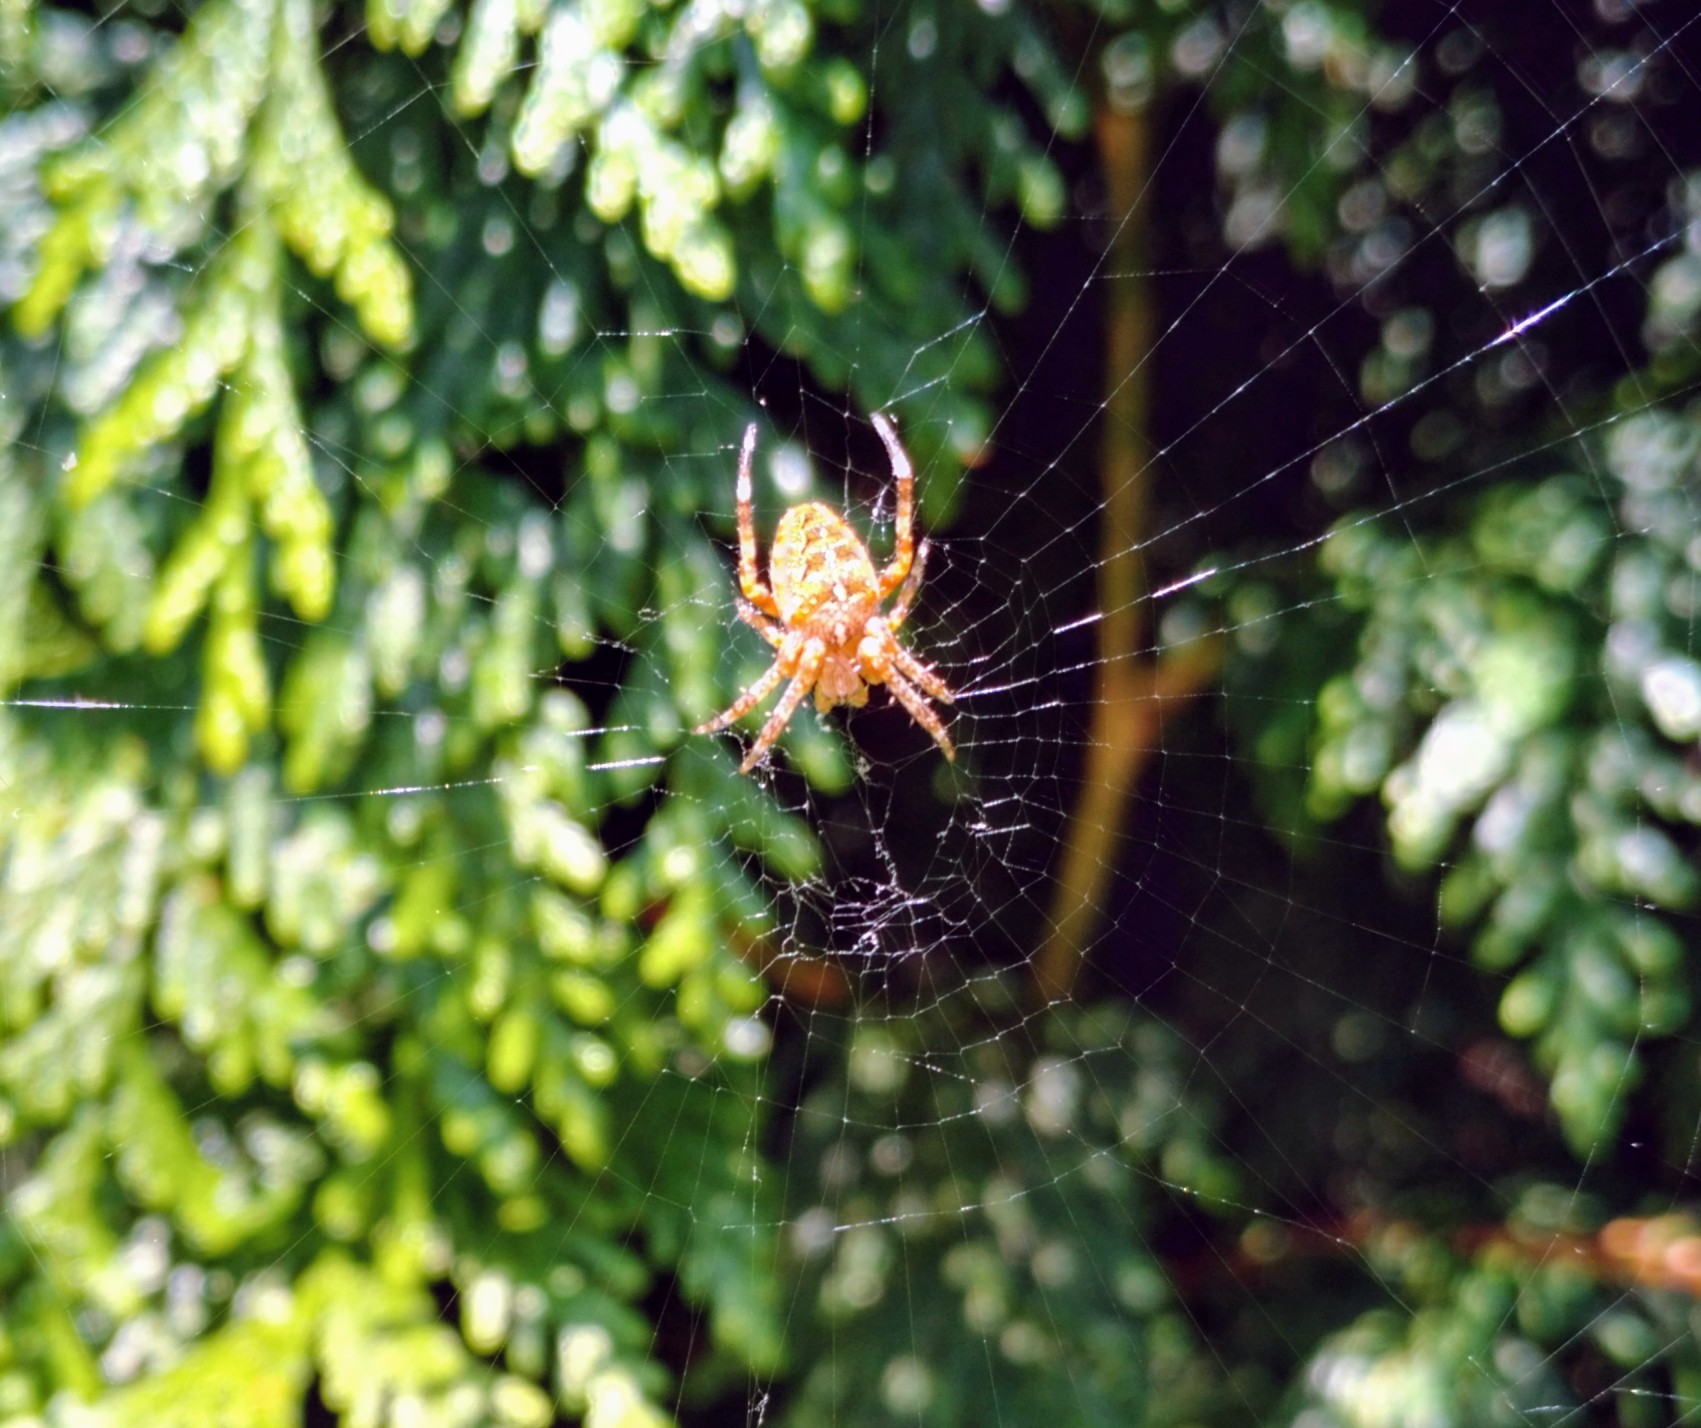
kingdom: Animalia
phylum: Arthropoda
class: Arachnida
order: Araneae
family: Araneidae
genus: Araneus
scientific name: Araneus diadematus
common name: Cross orbweaver
